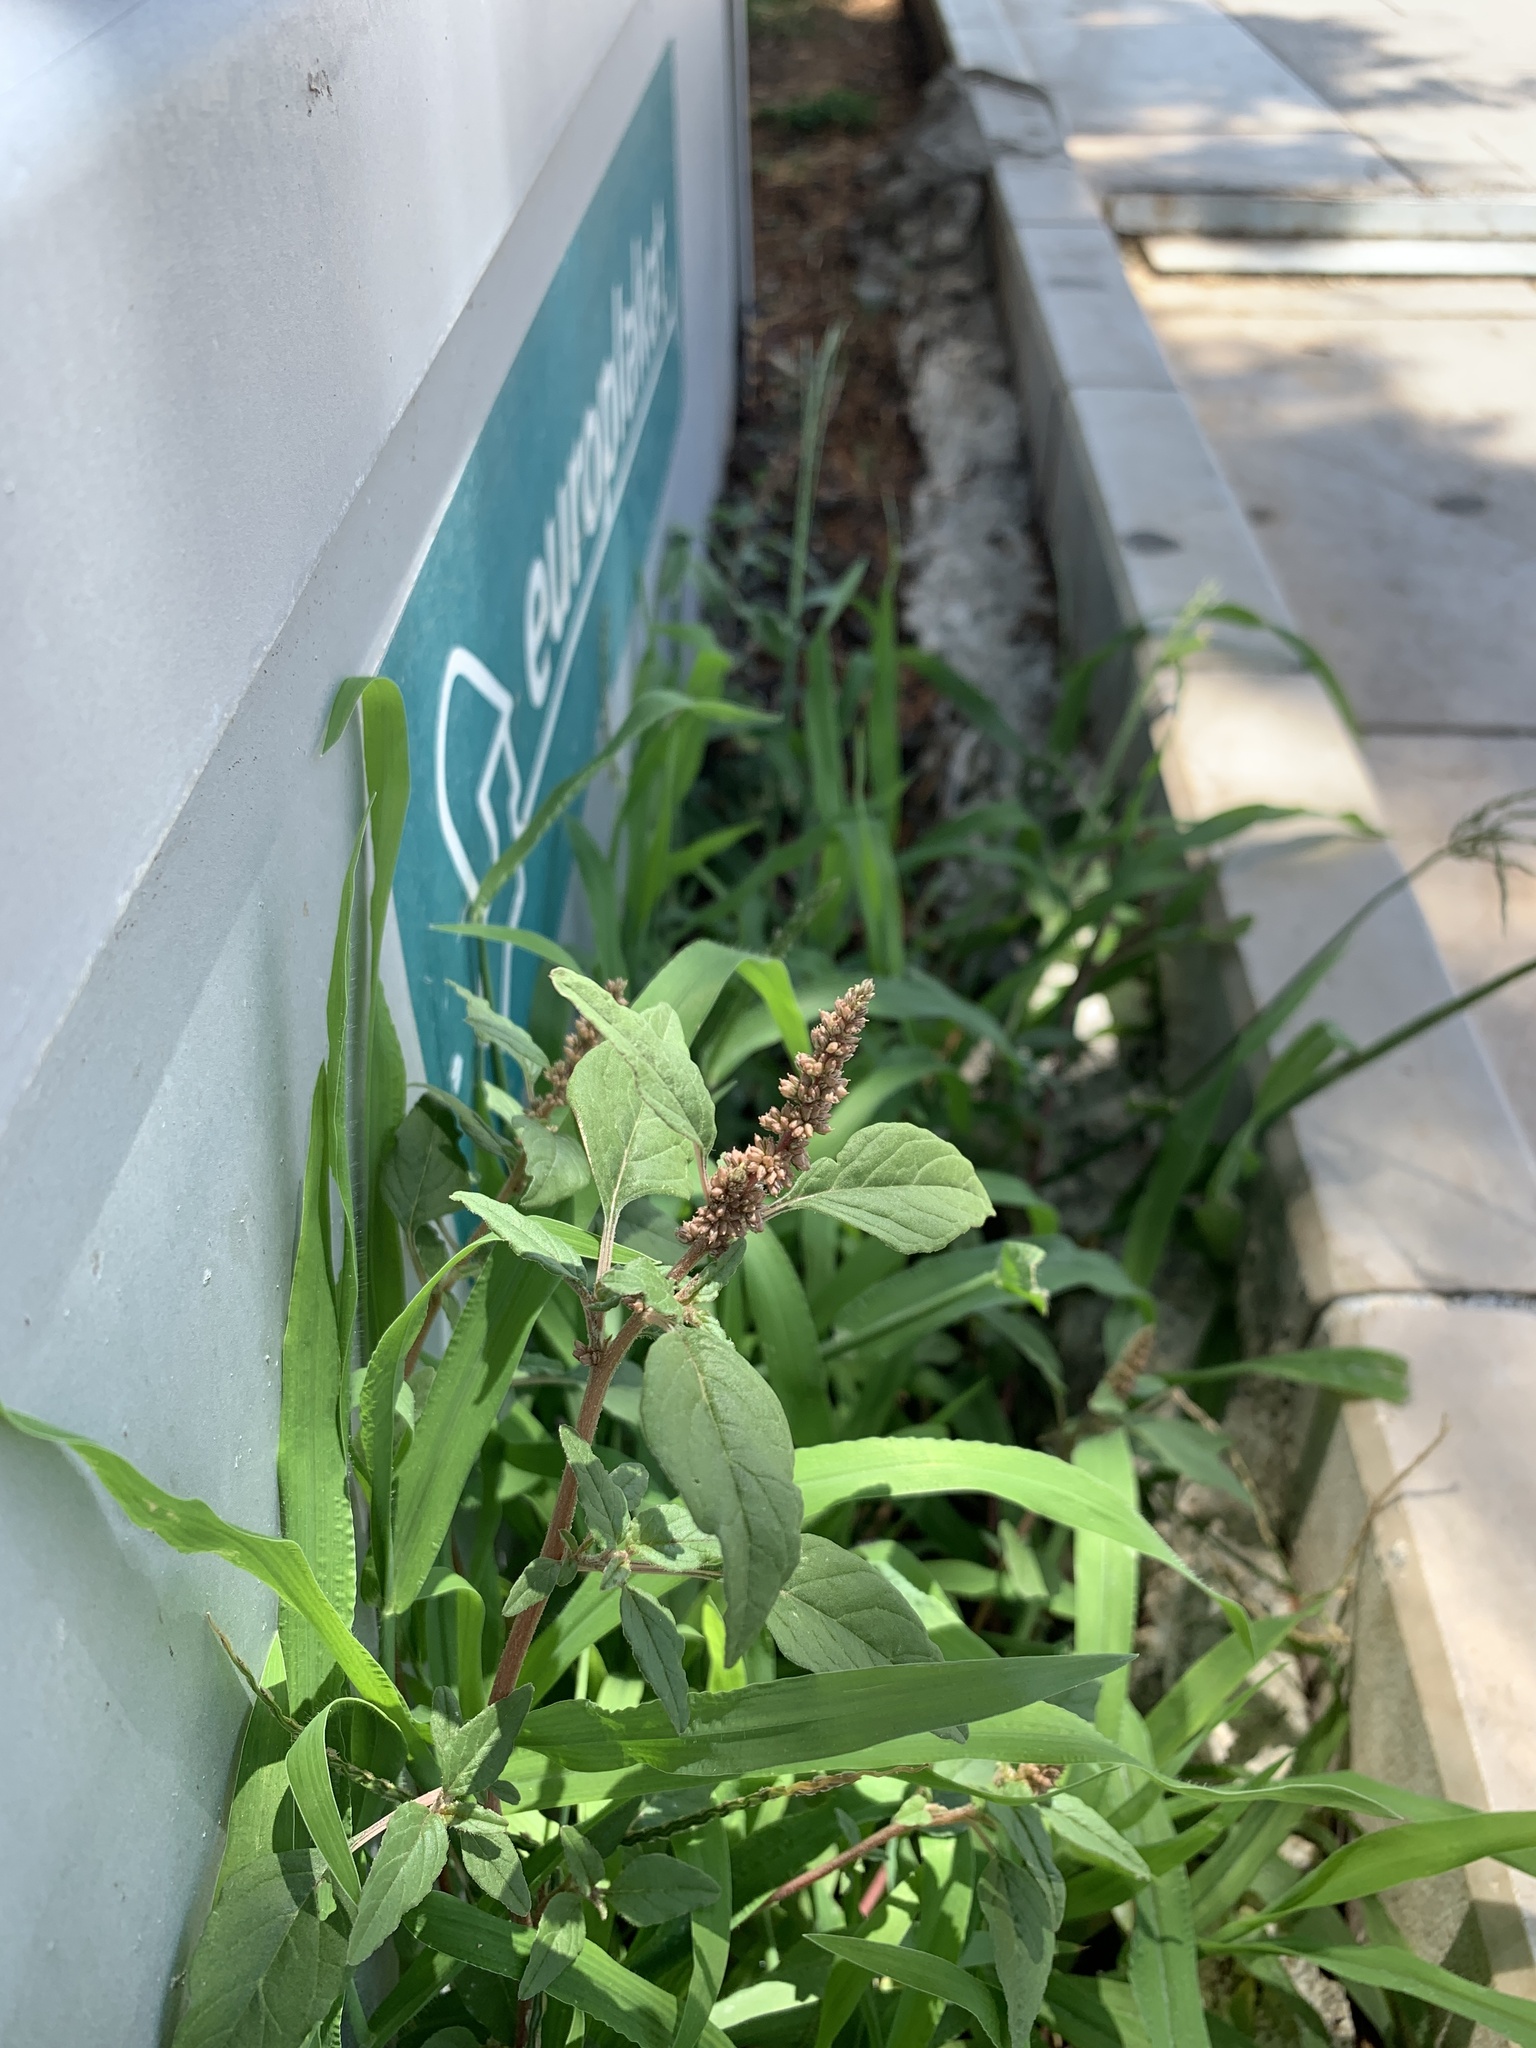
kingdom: Plantae
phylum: Tracheophyta
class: Magnoliopsida
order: Caryophyllales
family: Amaranthaceae
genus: Amaranthus
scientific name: Amaranthus deflexus
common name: Perennial pigweed
